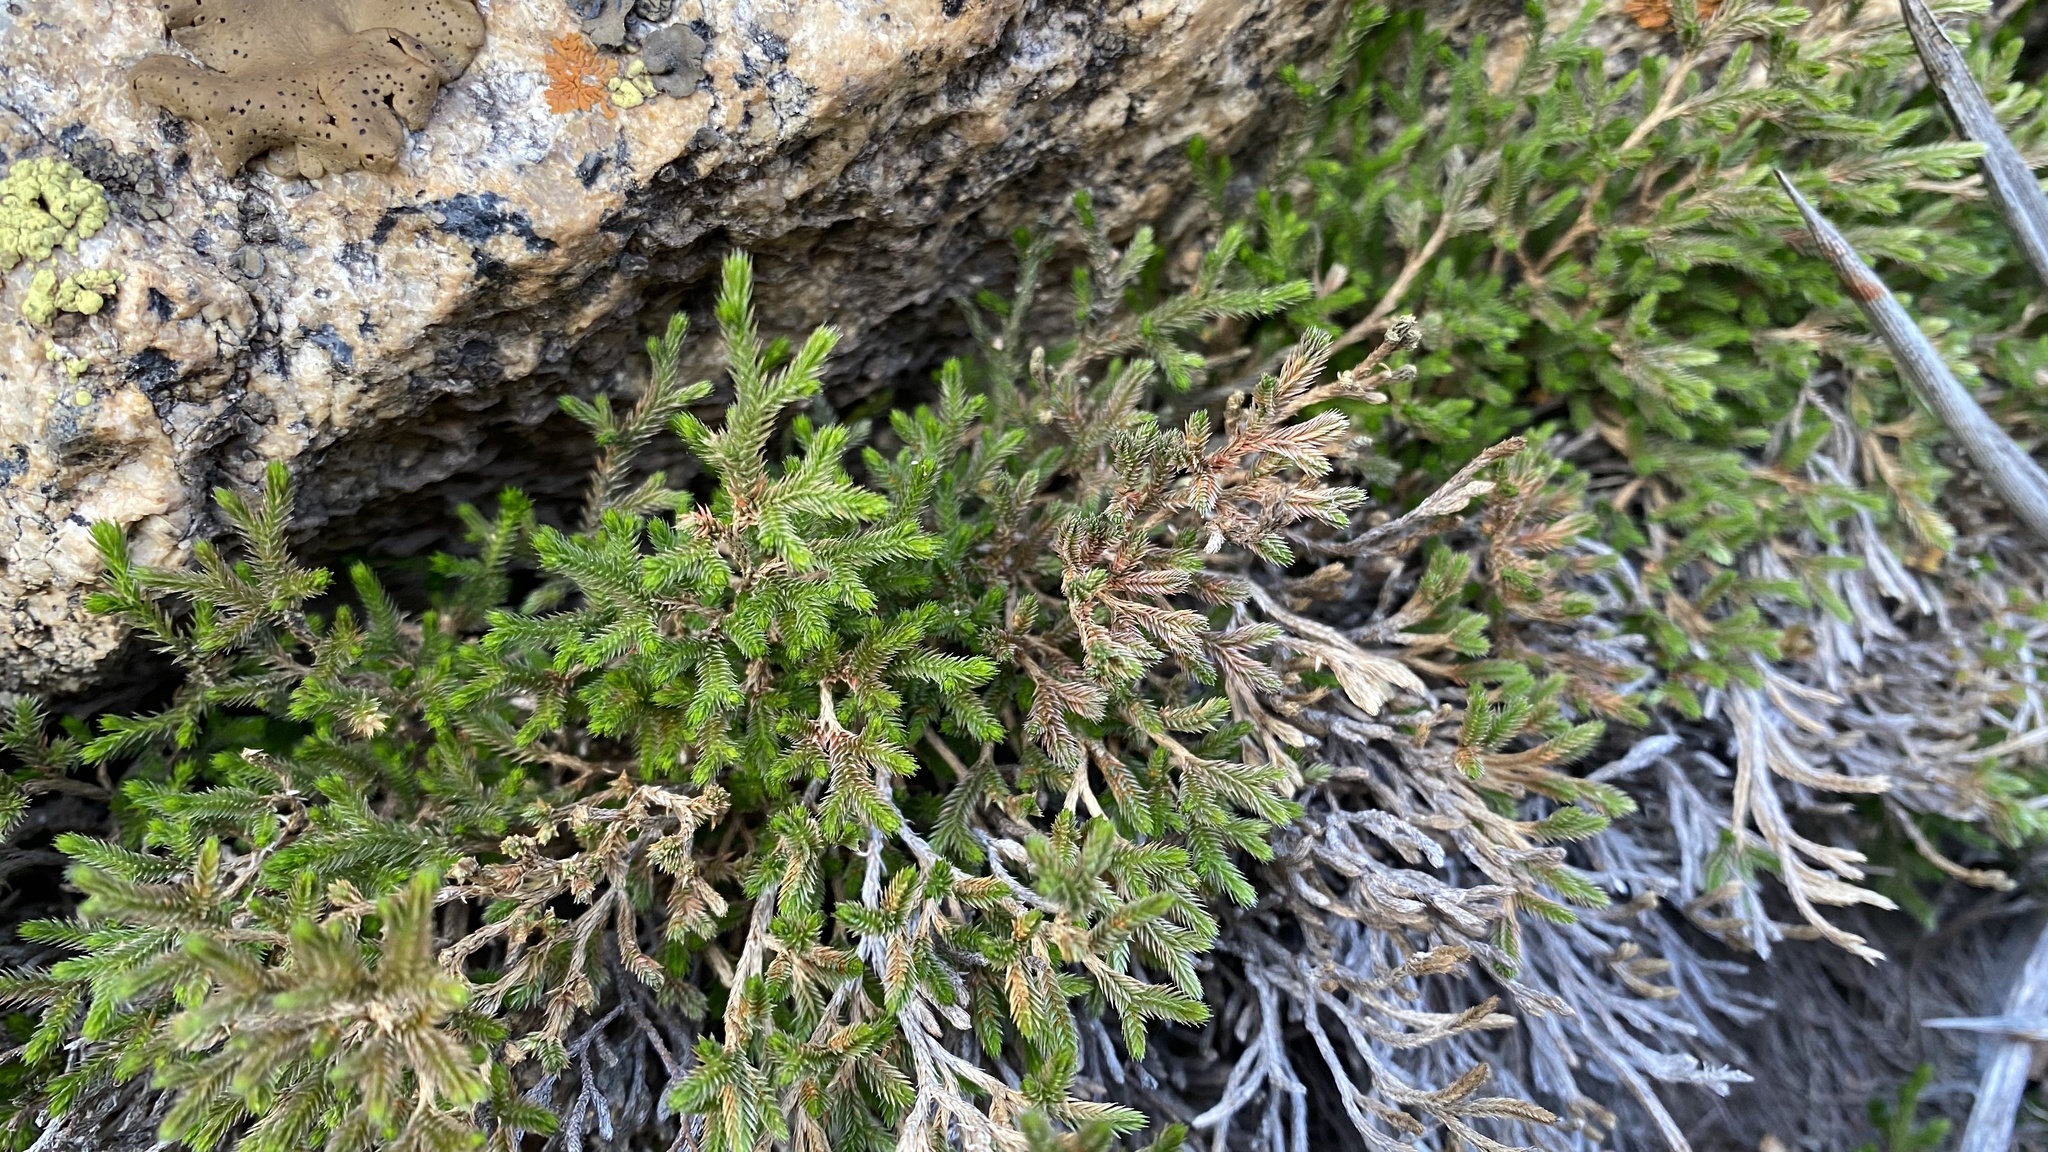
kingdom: Plantae
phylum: Tracheophyta
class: Lycopodiopsida
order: Selaginellales
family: Selaginellaceae
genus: Selaginella
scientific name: Selaginella bigelovii
